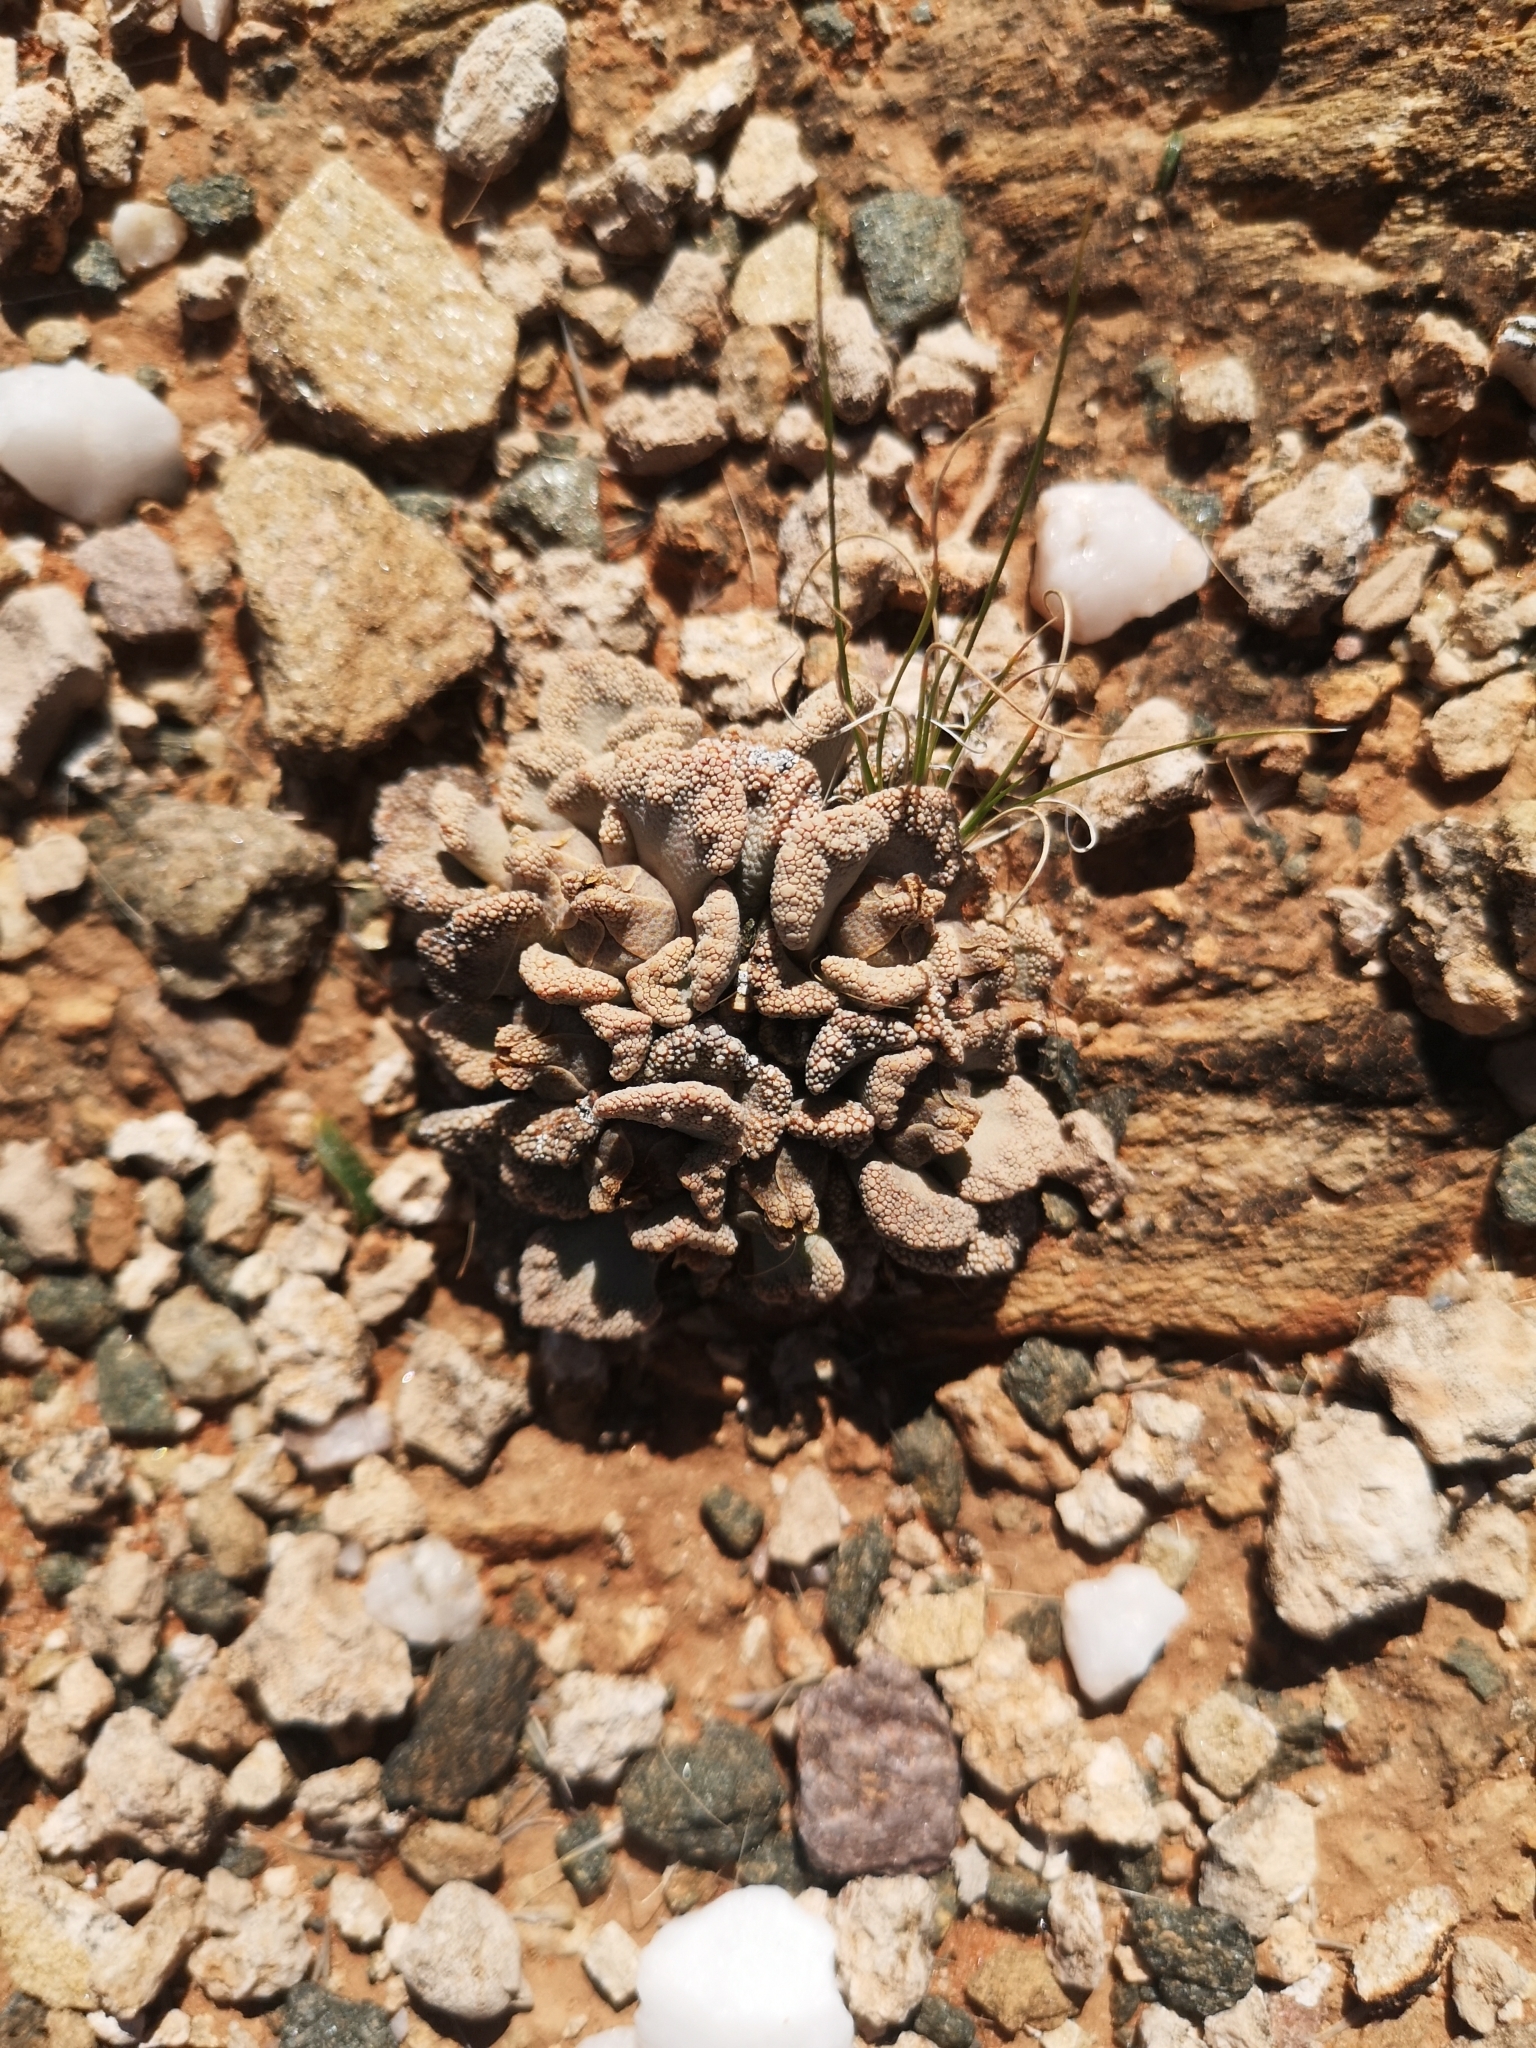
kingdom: Plantae
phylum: Tracheophyta
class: Magnoliopsida
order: Caryophyllales
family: Aizoaceae
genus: Titanopsis
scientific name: Titanopsis calcarea
